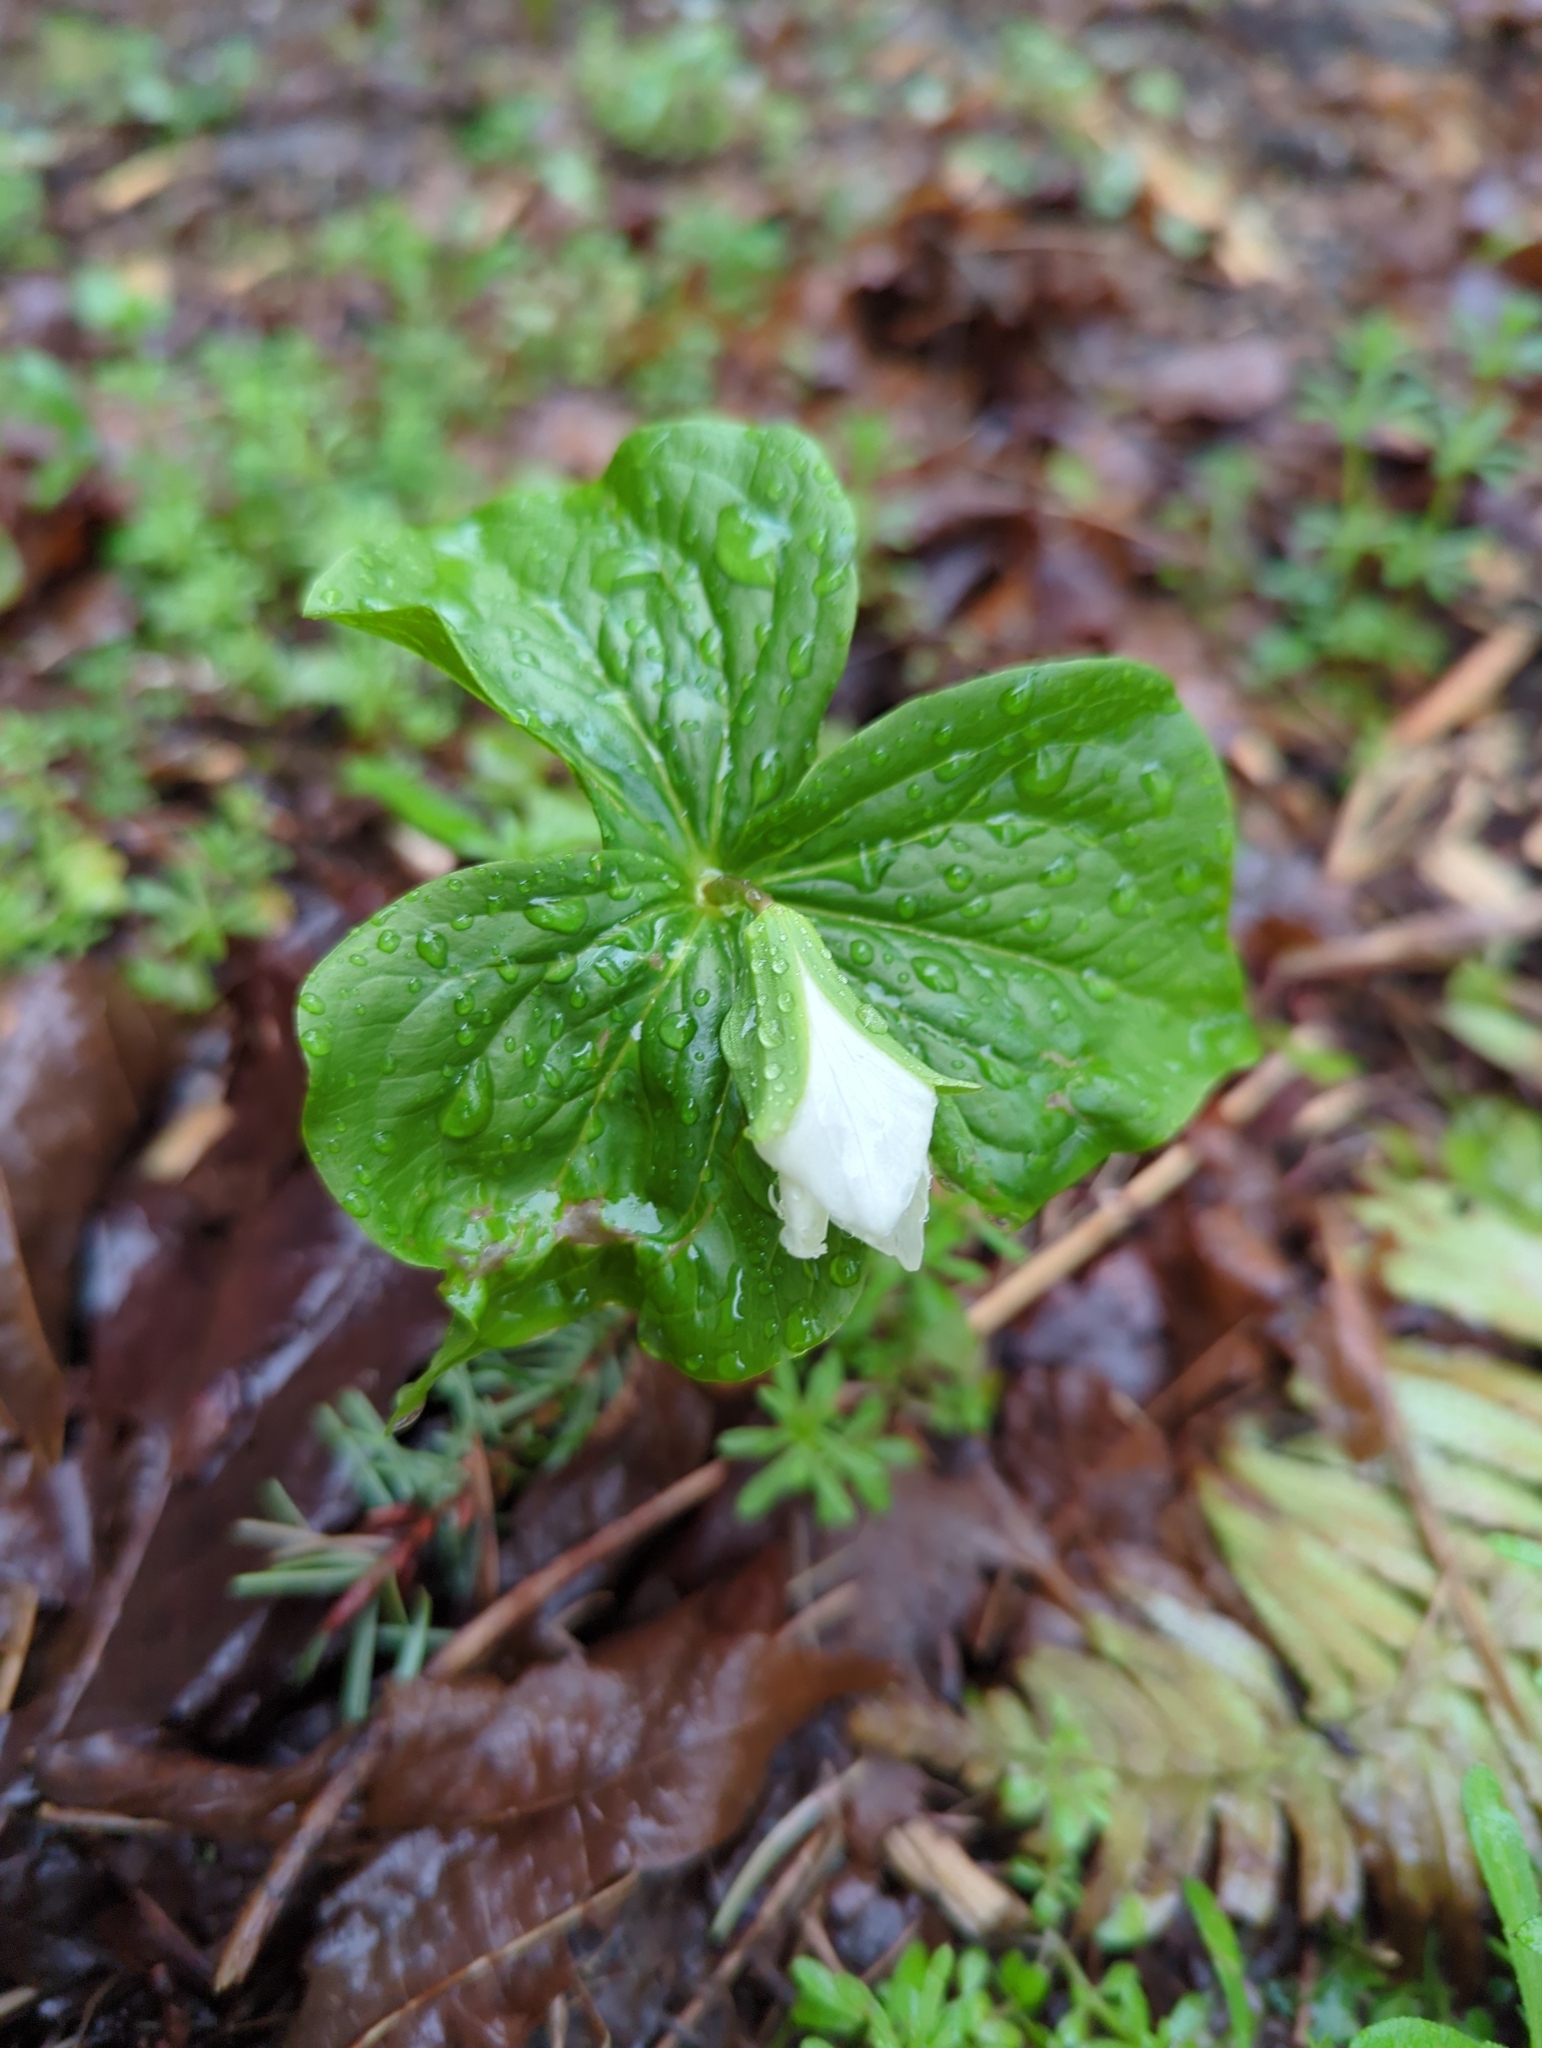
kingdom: Plantae
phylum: Tracheophyta
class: Liliopsida
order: Liliales
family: Melanthiaceae
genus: Trillium
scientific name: Trillium ovatum
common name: Pacific trillium
